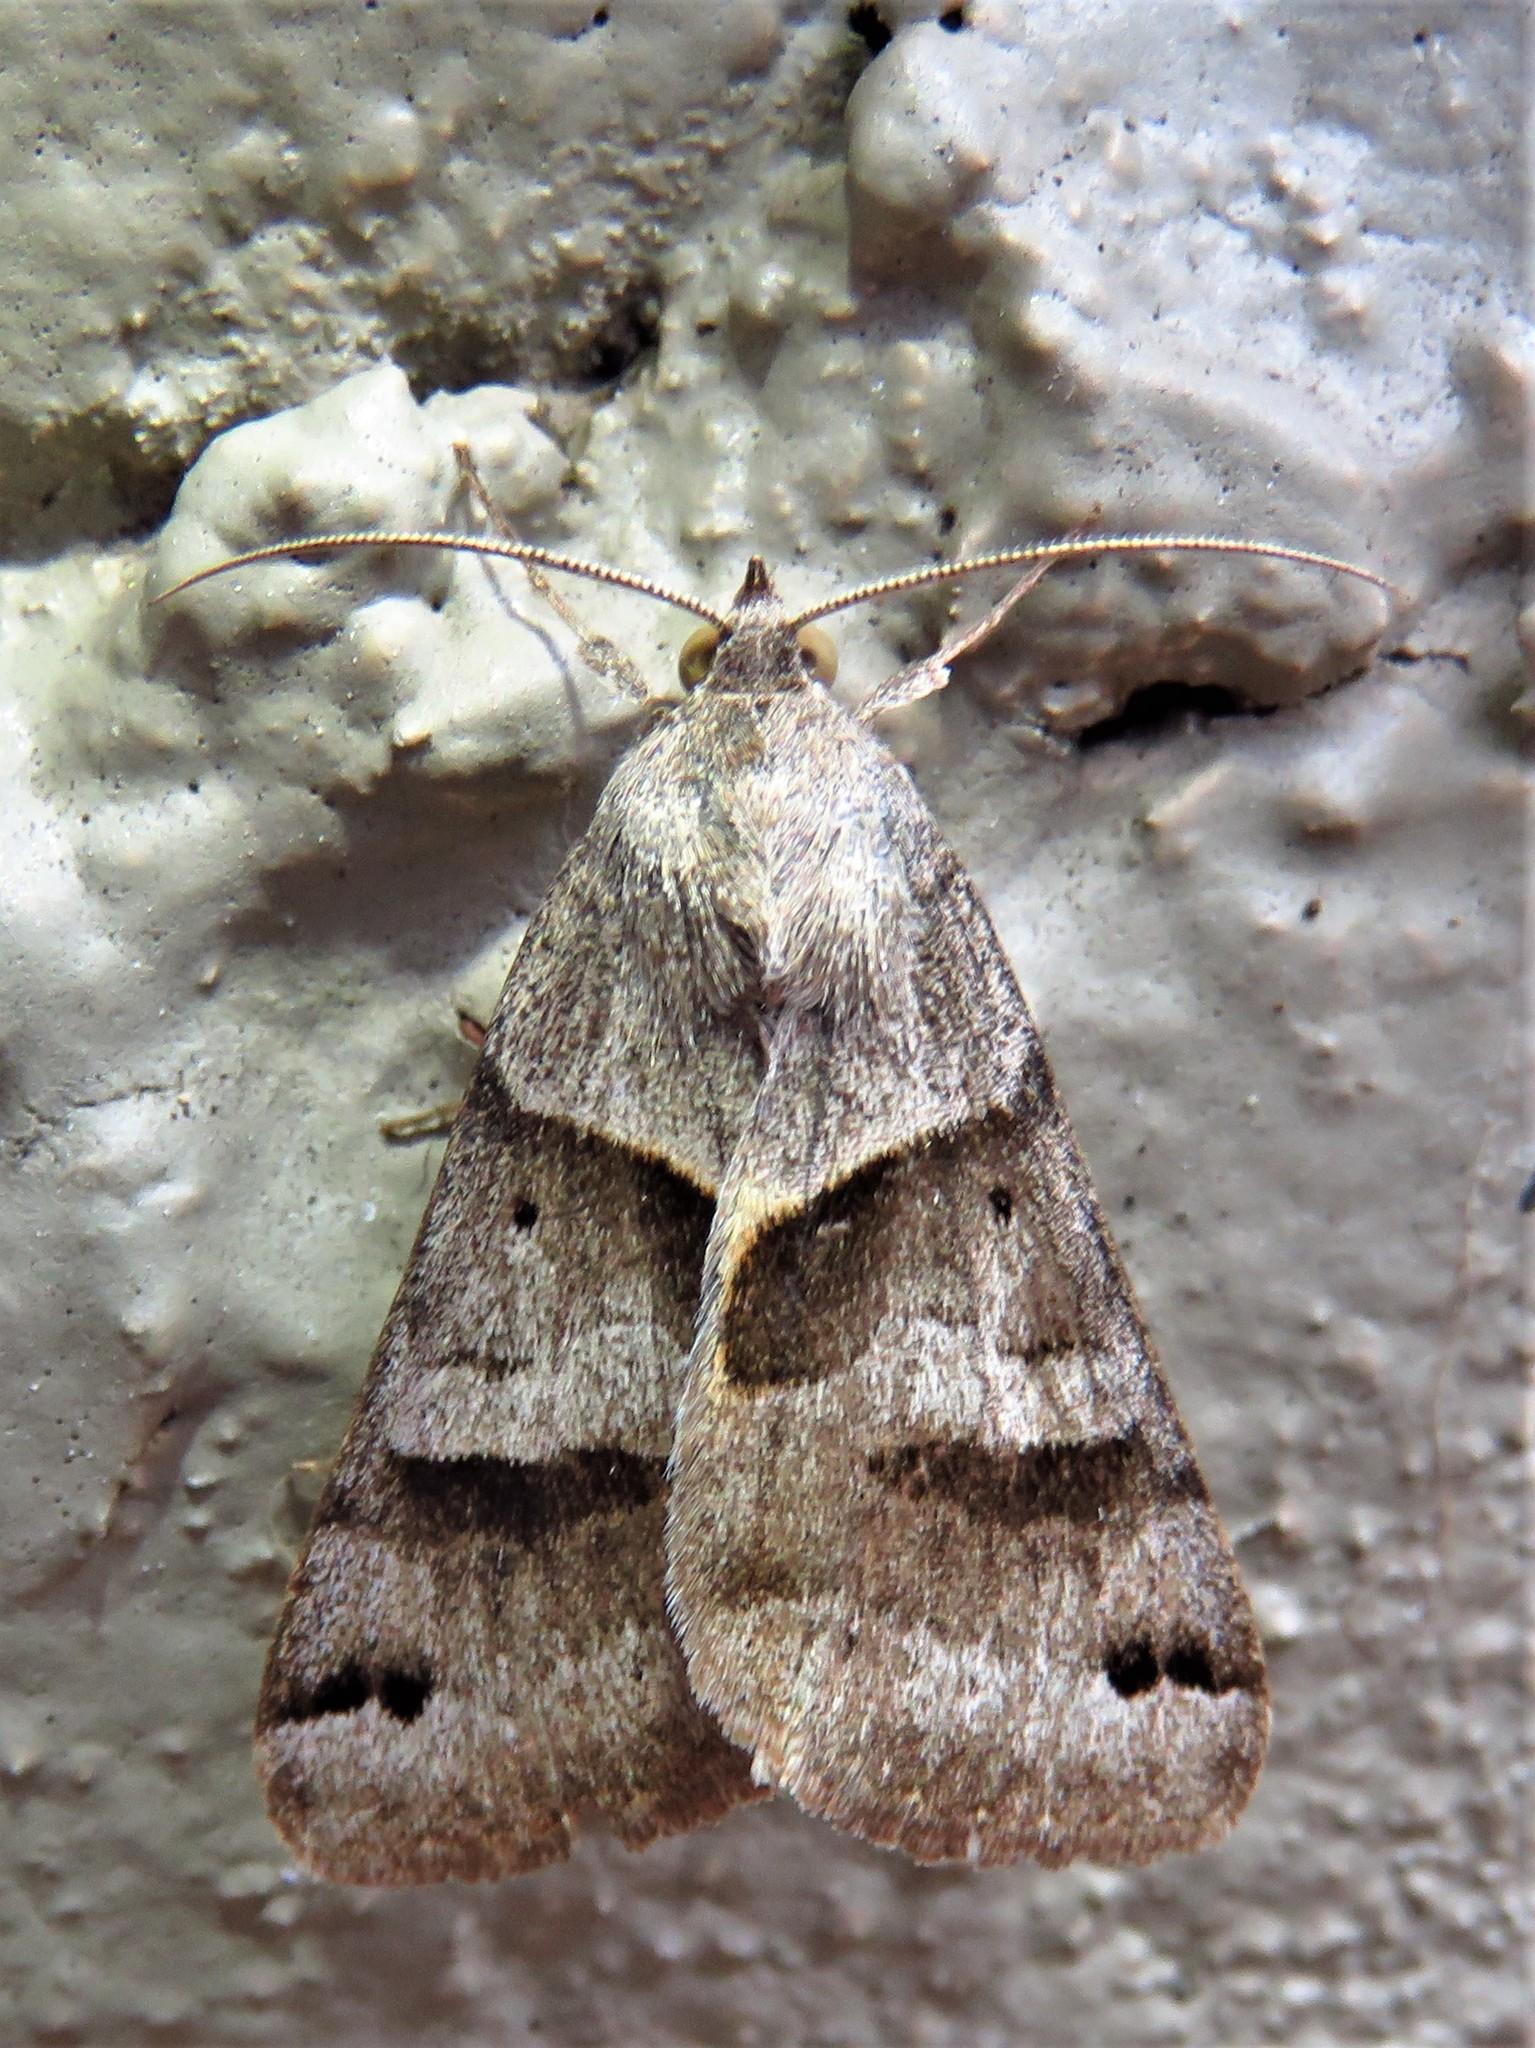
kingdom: Animalia
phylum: Arthropoda
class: Insecta
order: Lepidoptera
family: Erebidae
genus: Caenurgina
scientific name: Caenurgina erechtea
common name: Forage looper moth
